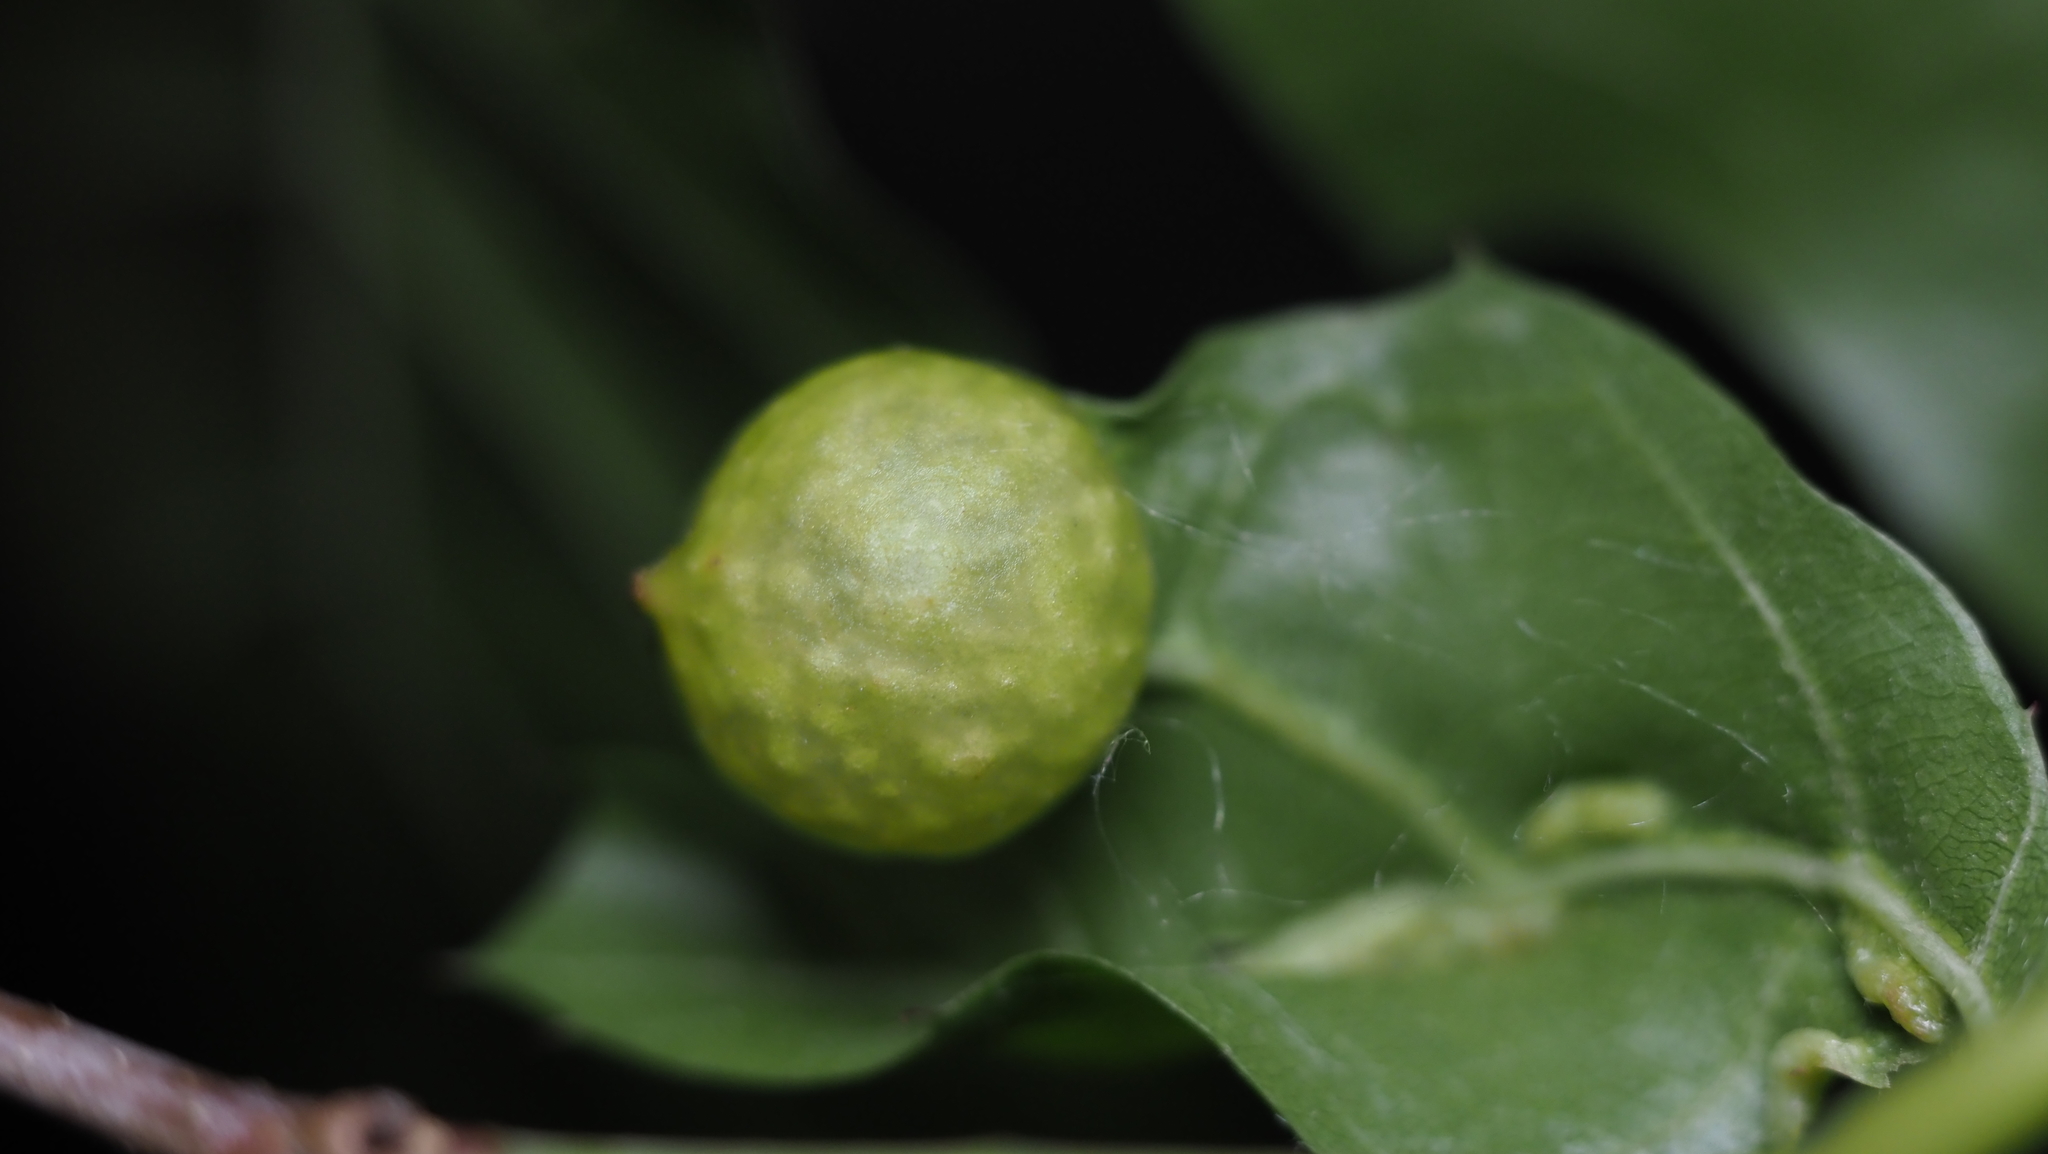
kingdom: Animalia
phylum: Arthropoda
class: Insecta
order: Hymenoptera
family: Cynipidae
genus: Amphibolips
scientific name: Amphibolips
